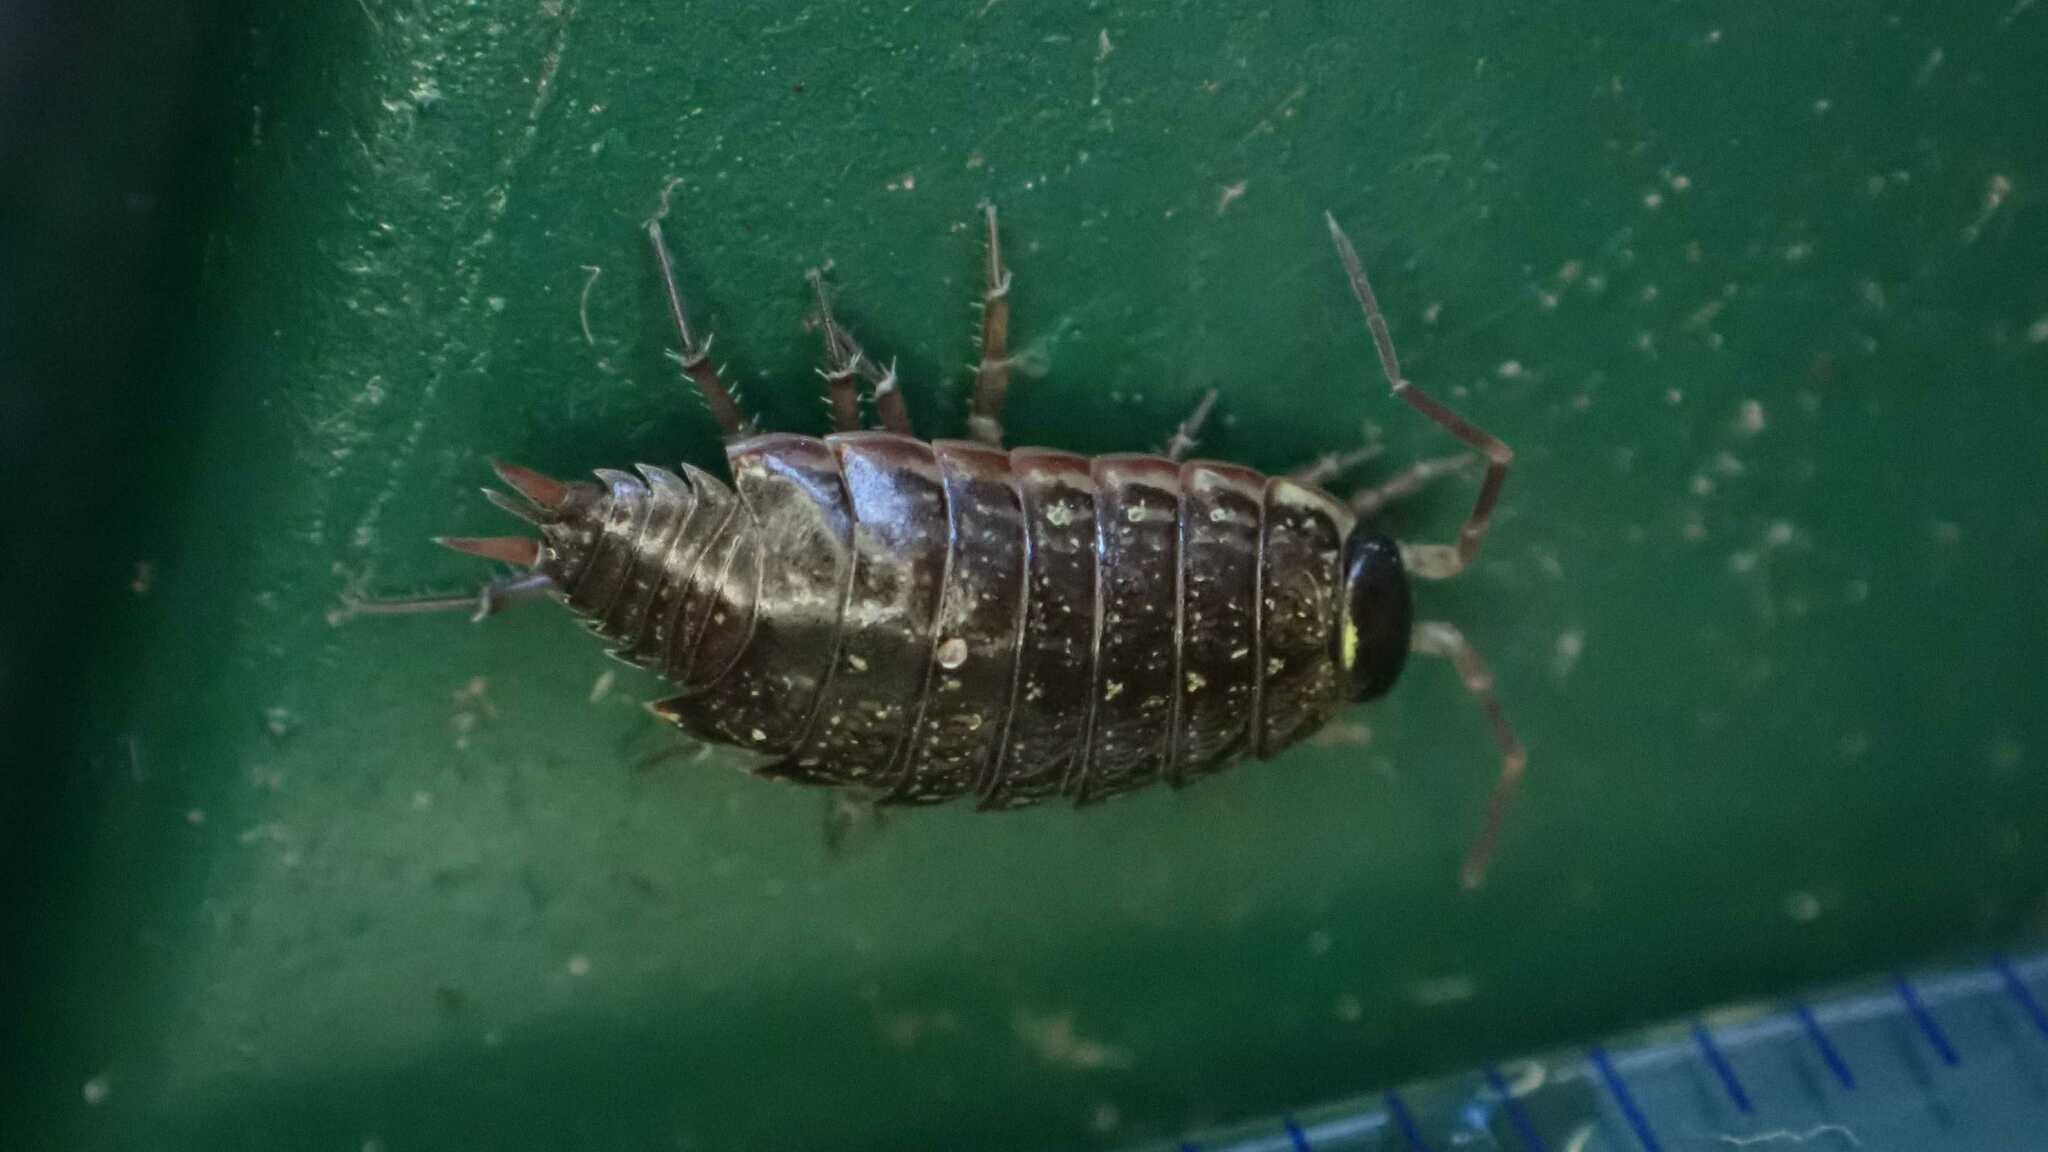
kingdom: Animalia
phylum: Arthropoda
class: Malacostraca
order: Isopoda
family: Philosciidae
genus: Philoscia
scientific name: Philoscia muscorum
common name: Common striped woodlouse
